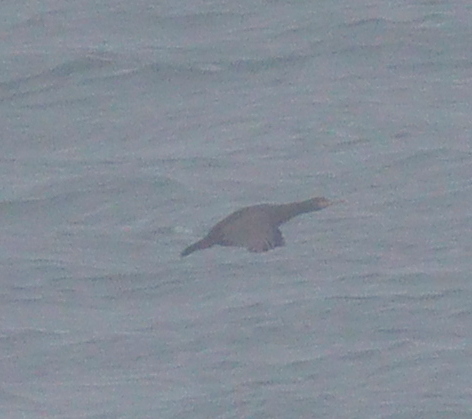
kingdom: Animalia
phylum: Chordata
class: Aves
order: Suliformes
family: Phalacrocoracidae
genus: Phalacrocorax
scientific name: Phalacrocorax aristotelis
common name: European shag
